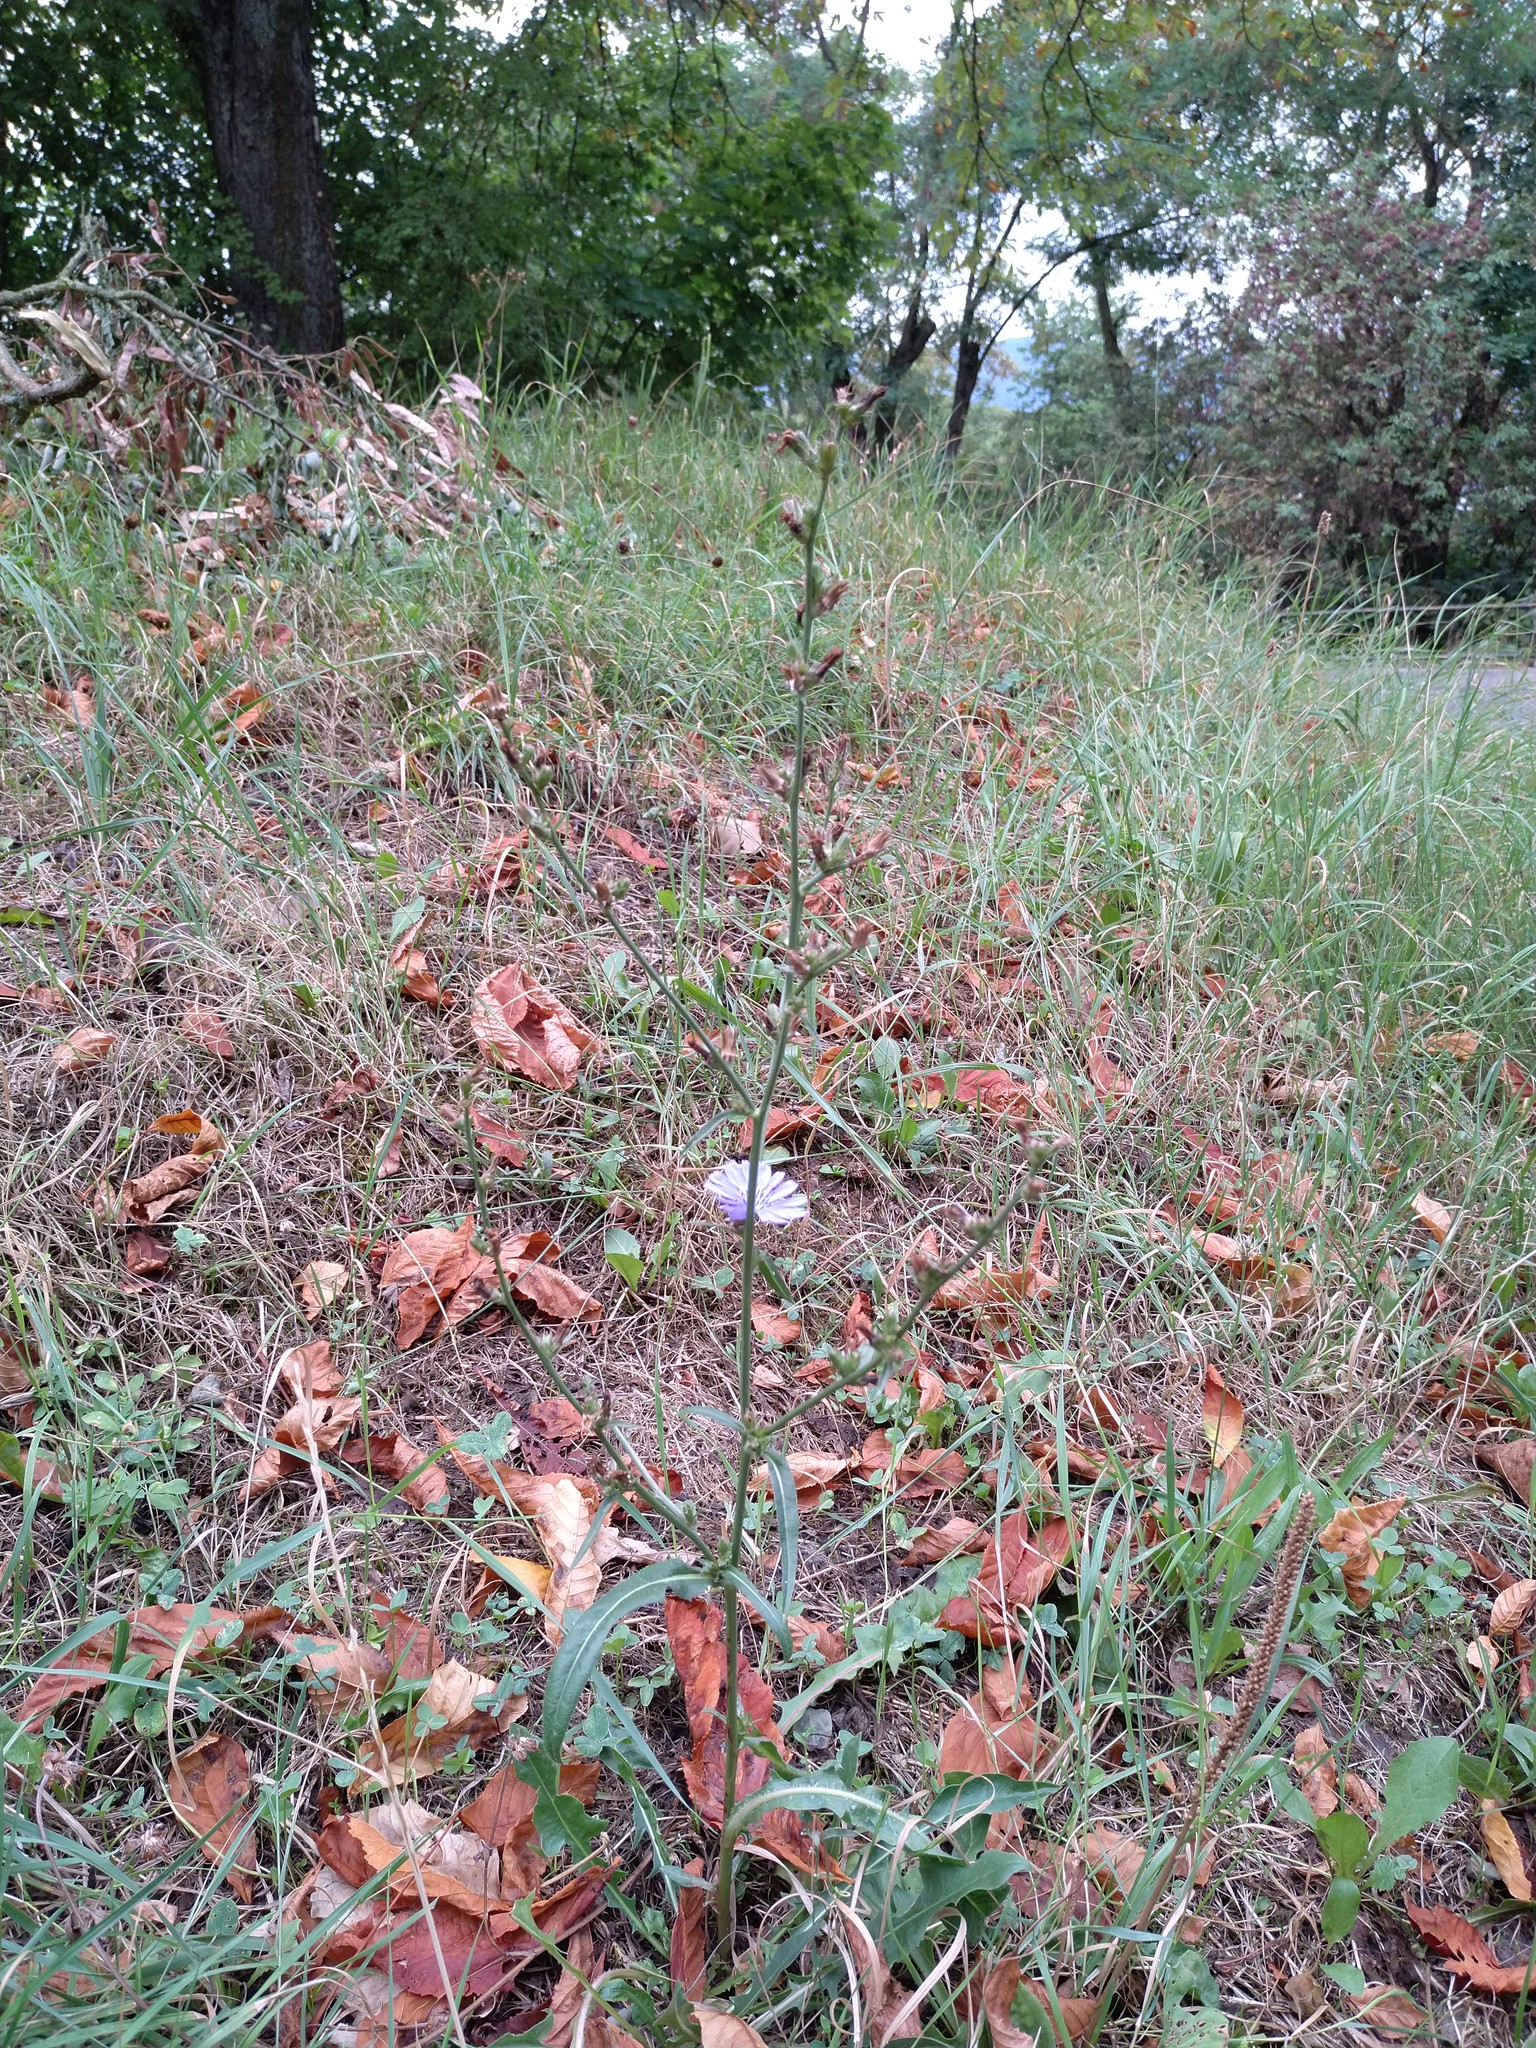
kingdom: Plantae
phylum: Tracheophyta
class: Magnoliopsida
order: Asterales
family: Asteraceae
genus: Cichorium
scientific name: Cichorium intybus
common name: Chicory
